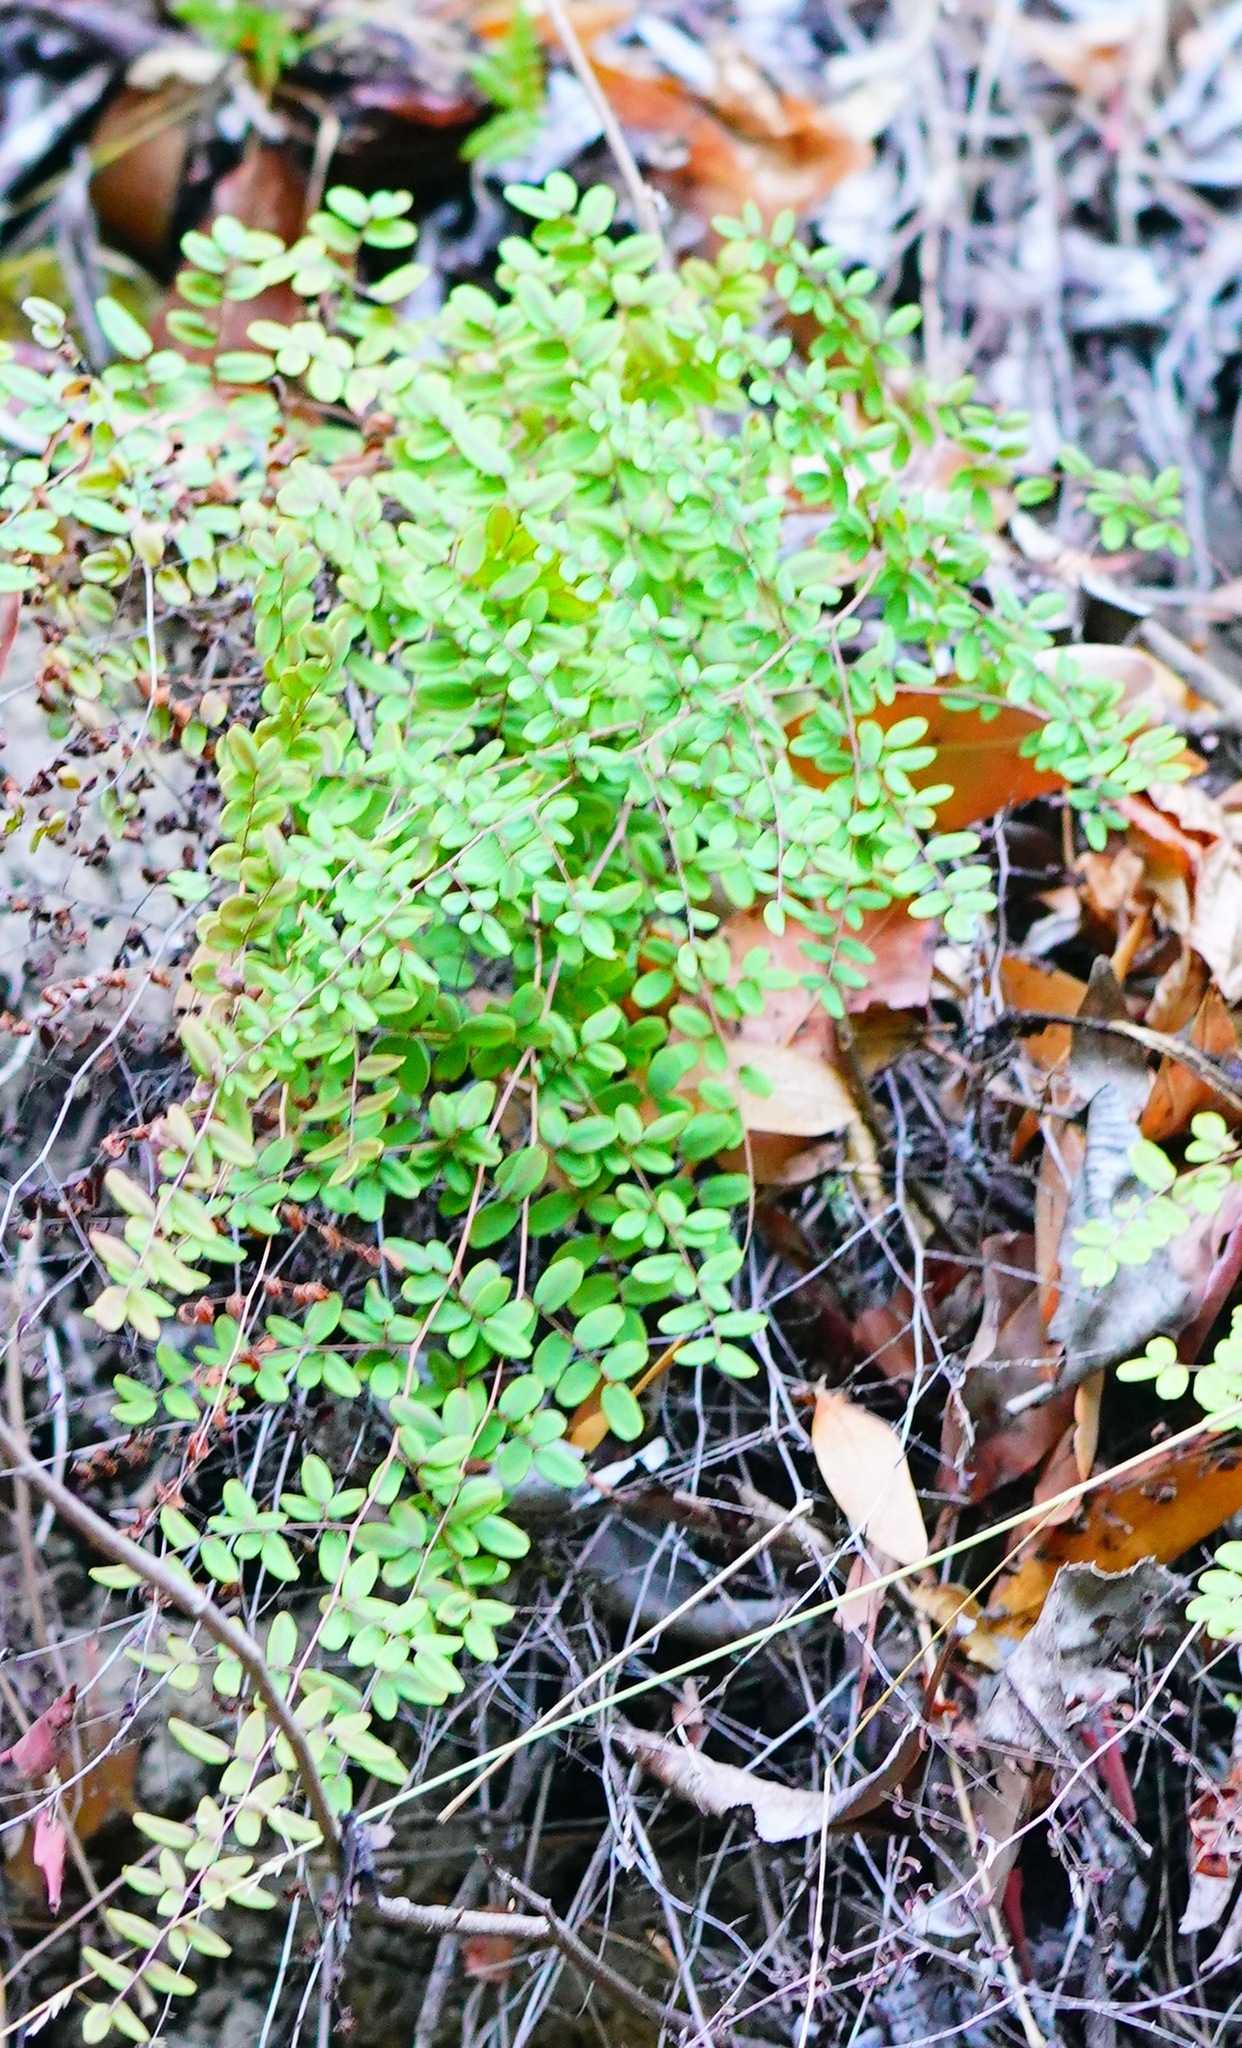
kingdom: Plantae
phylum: Tracheophyta
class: Polypodiopsida
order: Polypodiales
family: Pteridaceae
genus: Pellaea
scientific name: Pellaea andromedifolia
